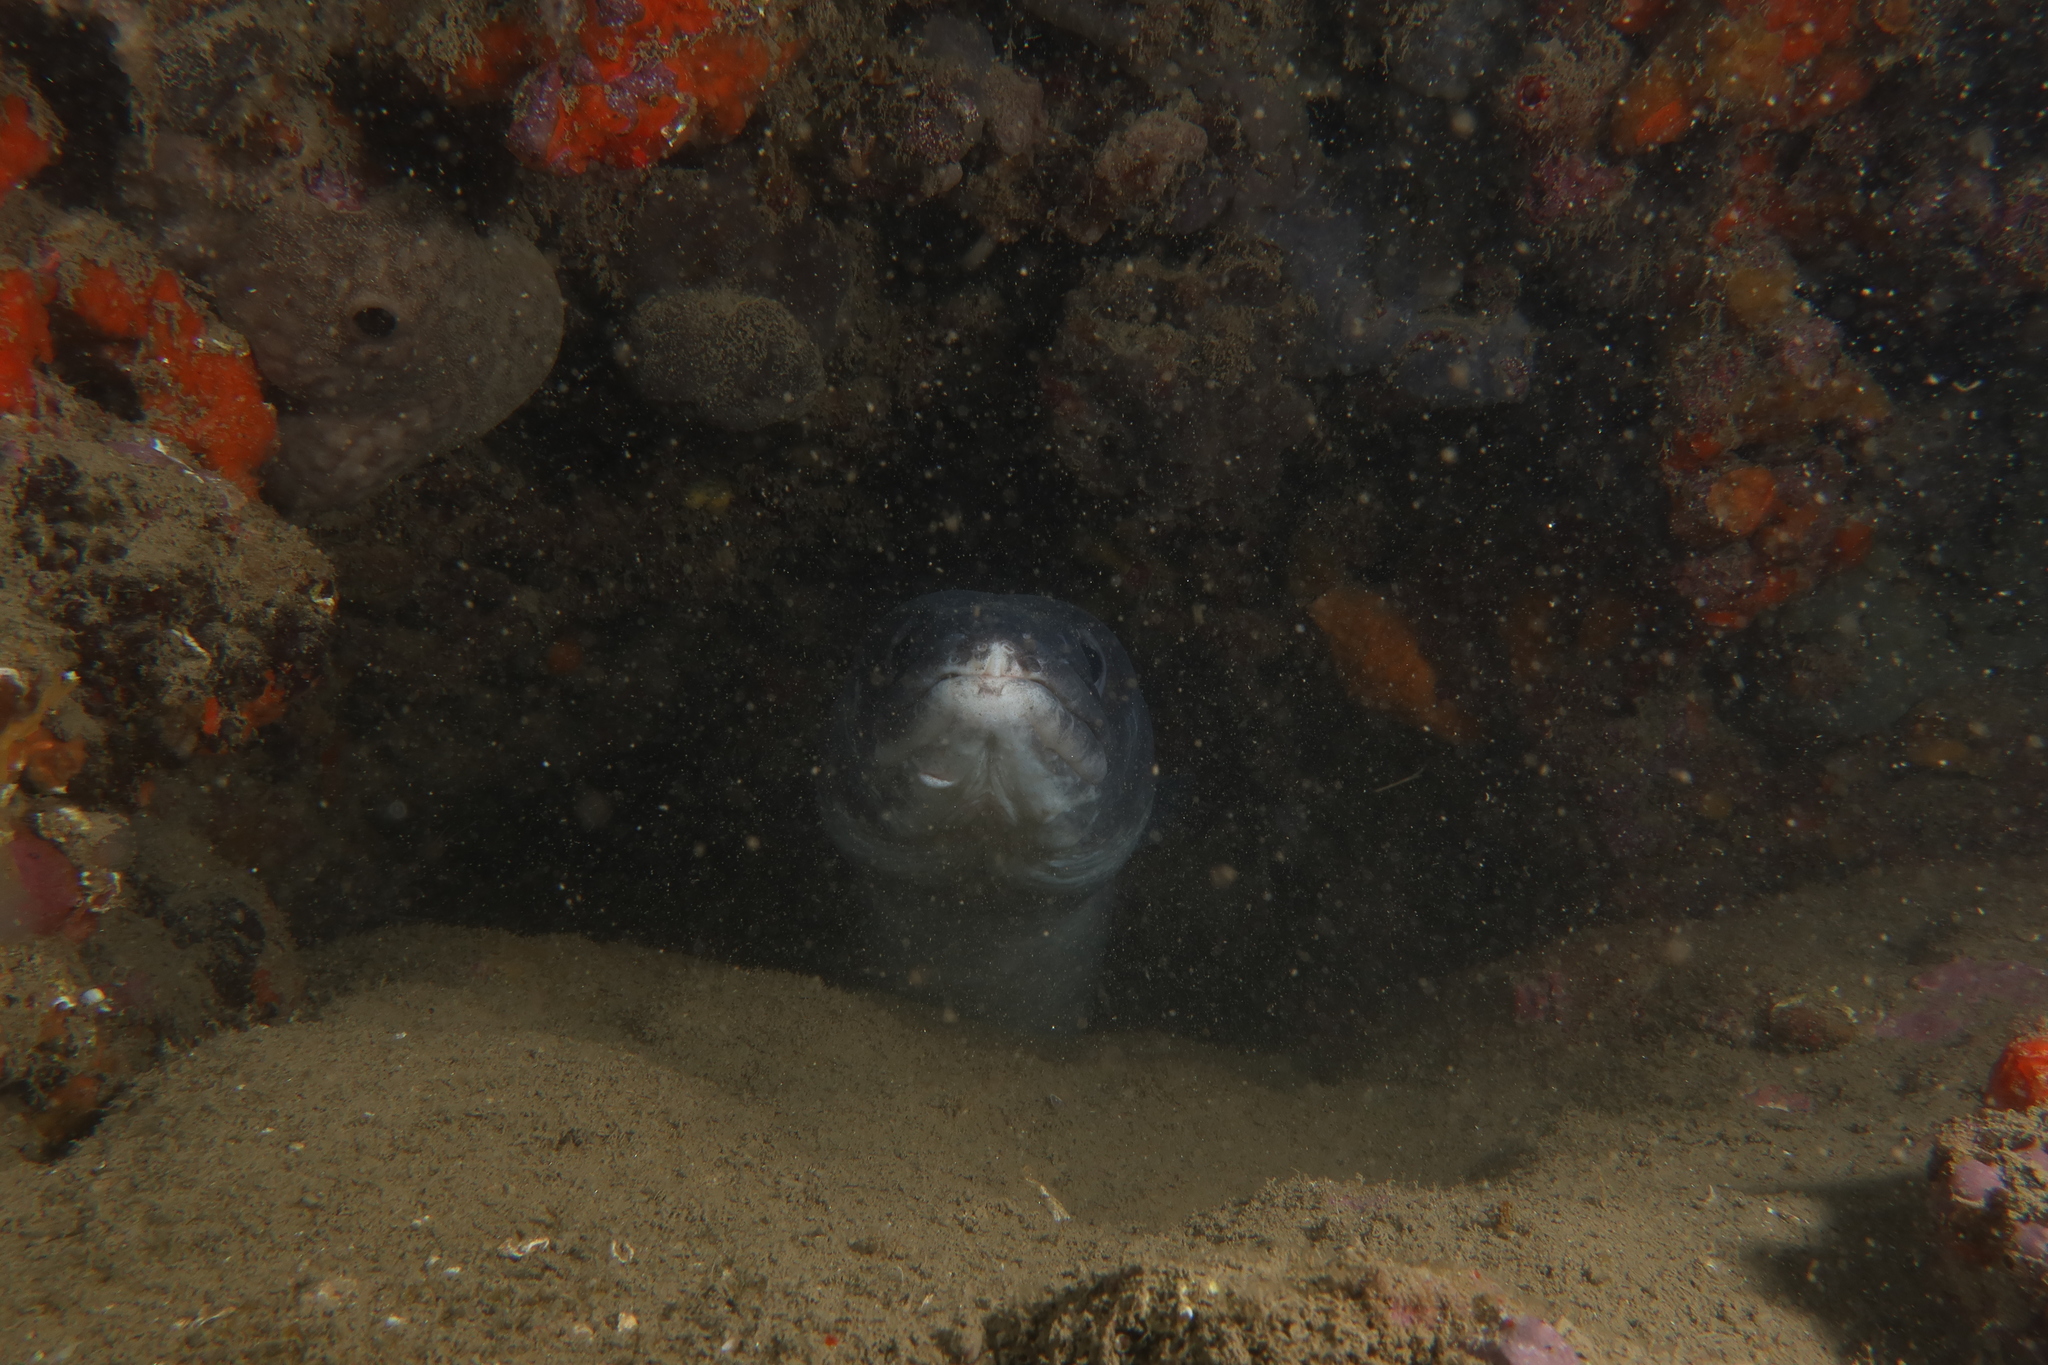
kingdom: Animalia
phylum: Chordata
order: Anguilliformes
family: Congridae
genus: Conger
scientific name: Conger conger
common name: Conger eel
